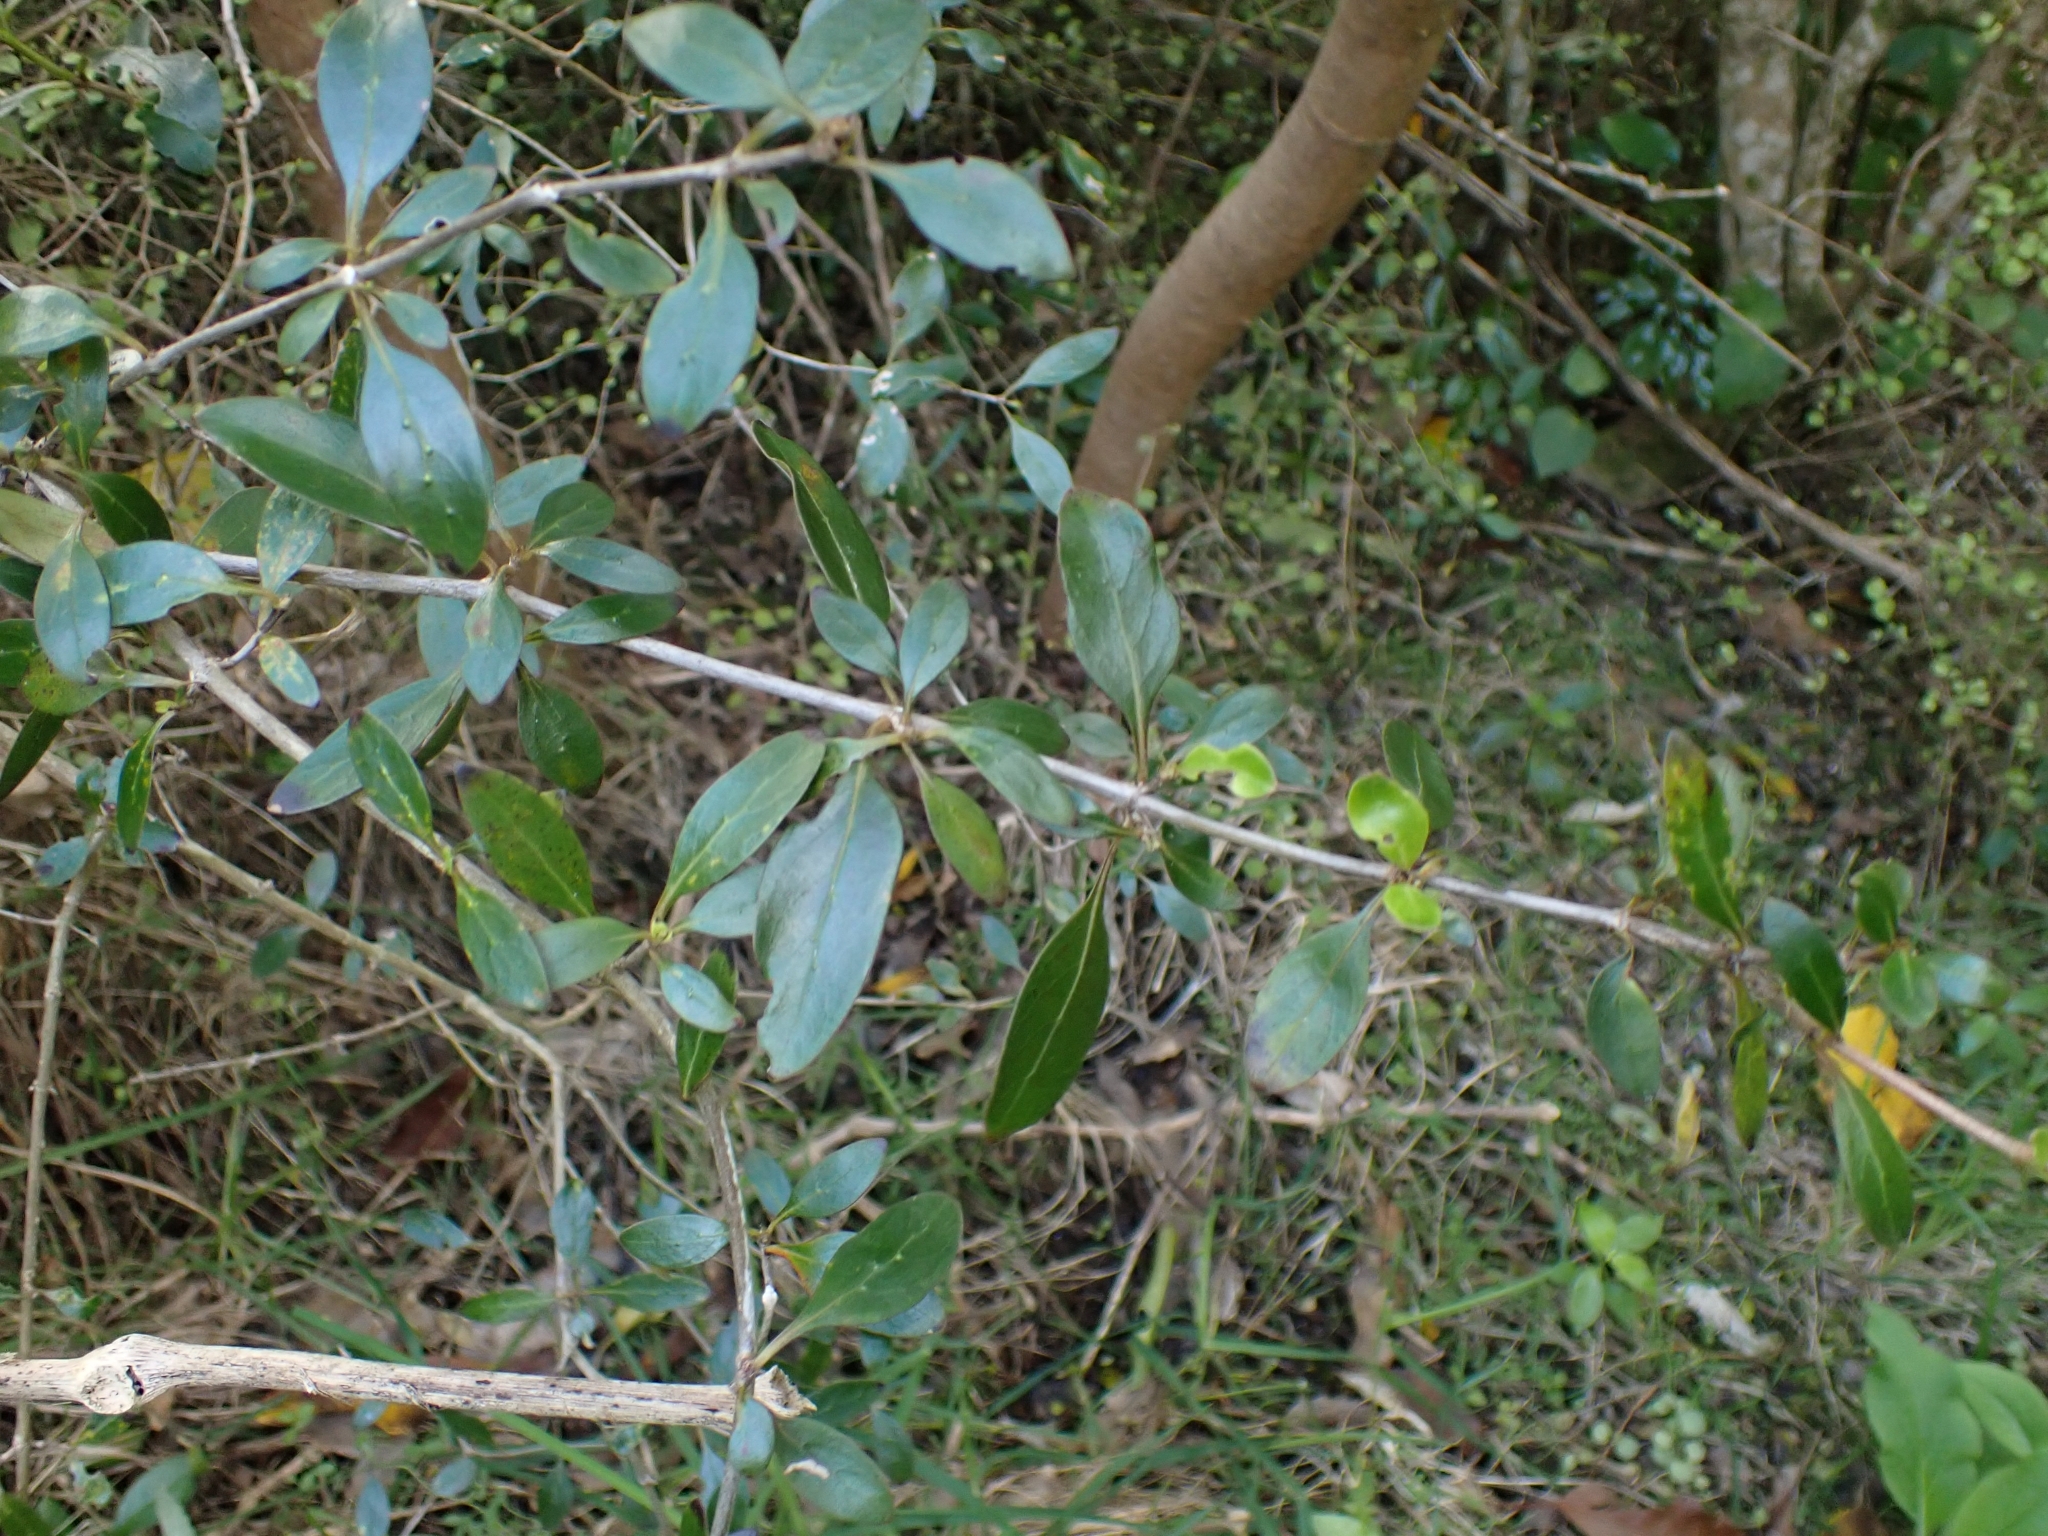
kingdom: Plantae
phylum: Tracheophyta
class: Magnoliopsida
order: Gentianales
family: Rubiaceae
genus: Coprosma
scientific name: Coprosma cunninghamii
